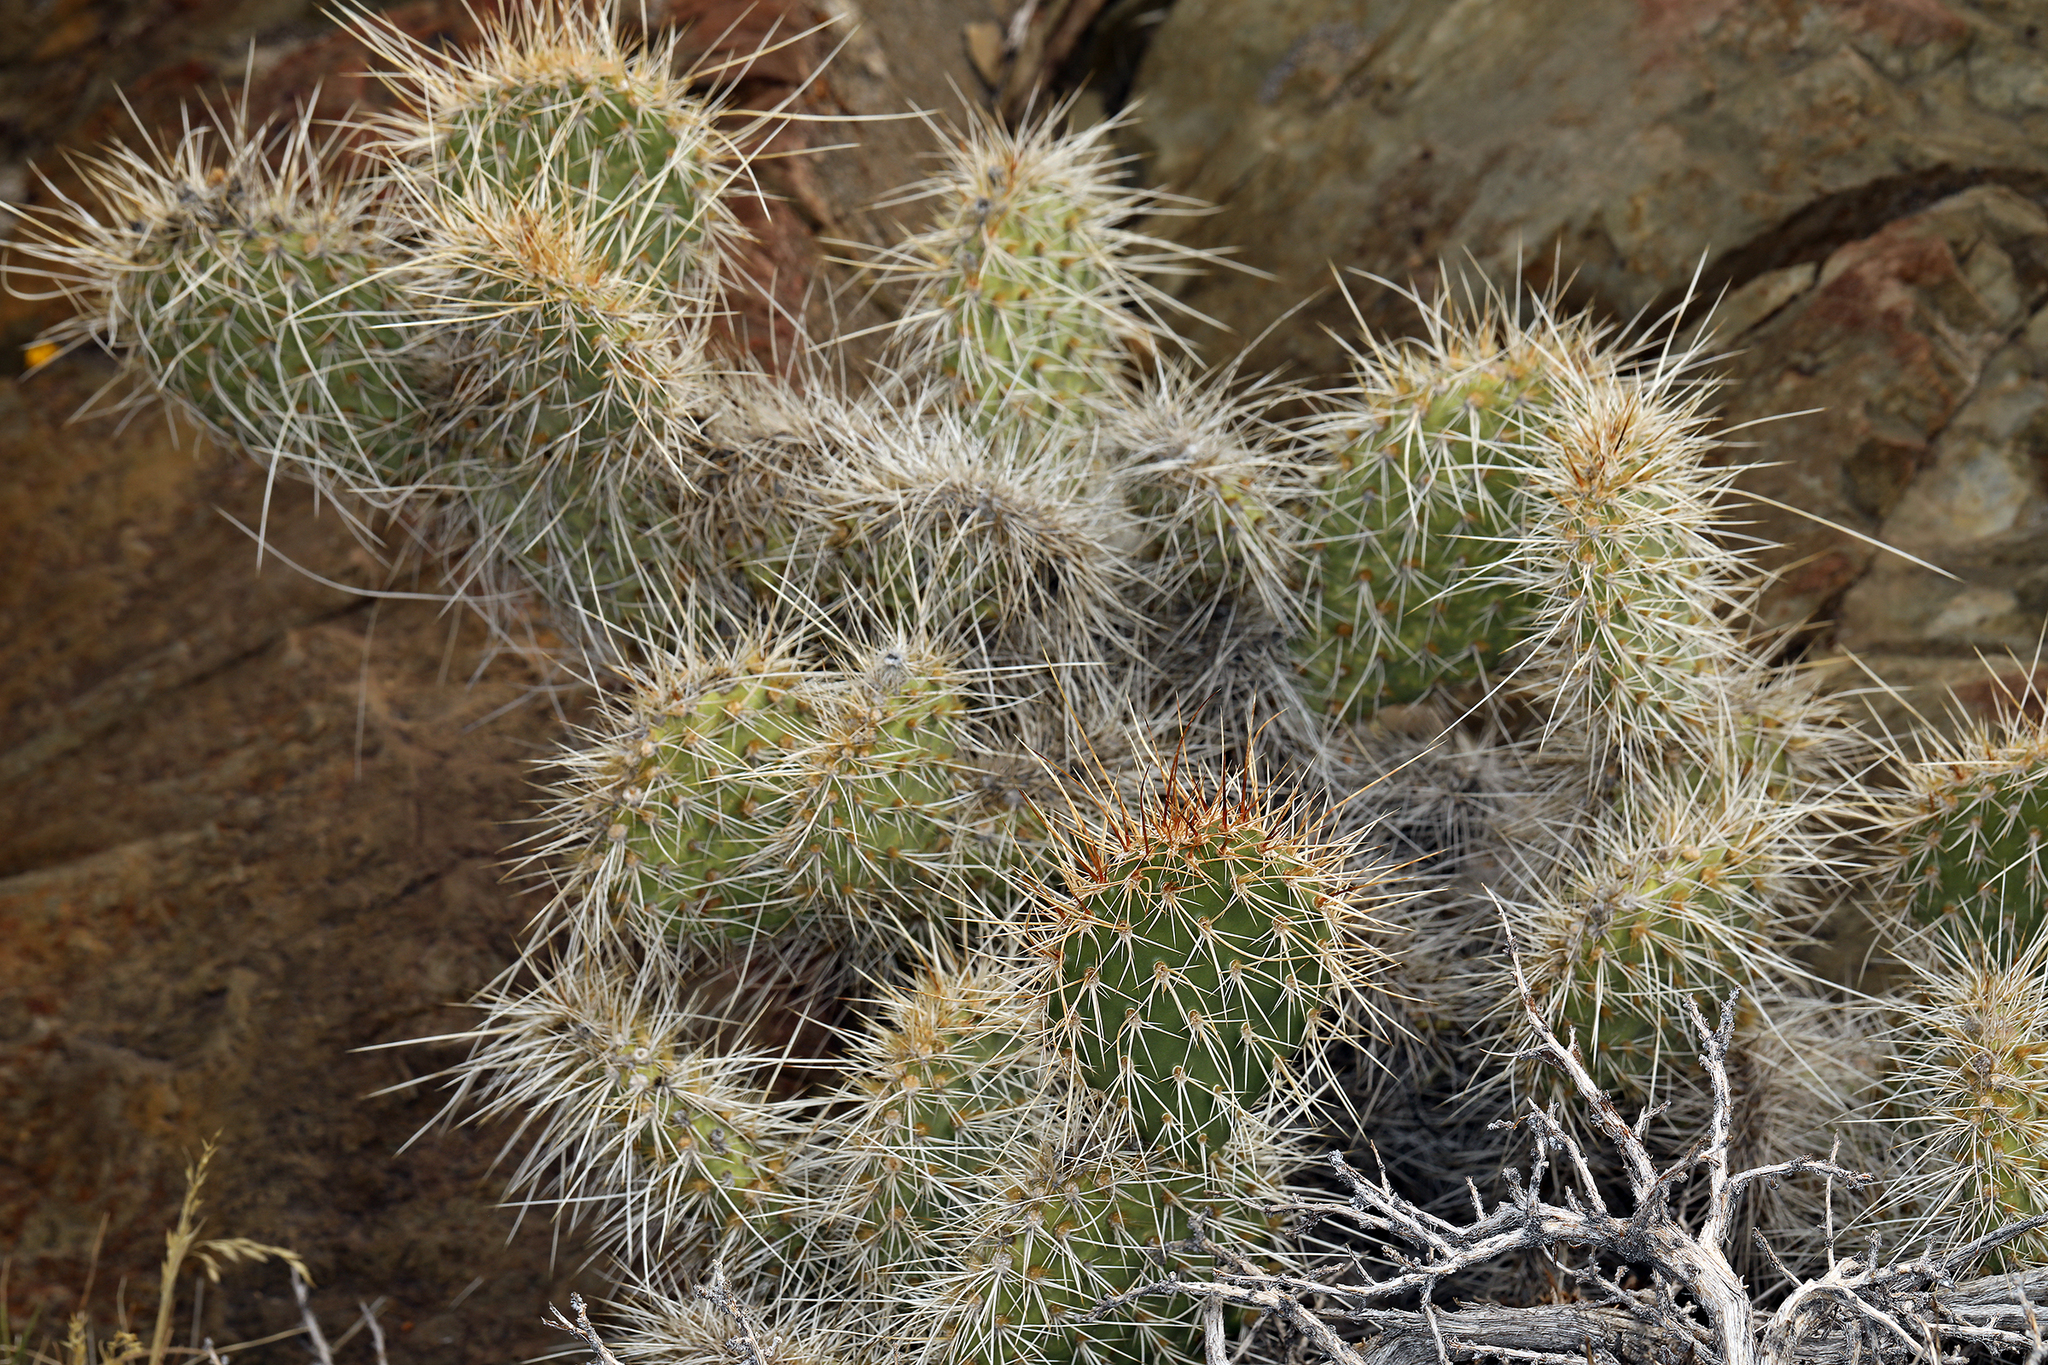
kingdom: Plantae
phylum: Tracheophyta
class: Magnoliopsida
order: Caryophyllales
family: Cactaceae
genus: Opuntia
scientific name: Opuntia polyacantha
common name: Plains prickly-pear
